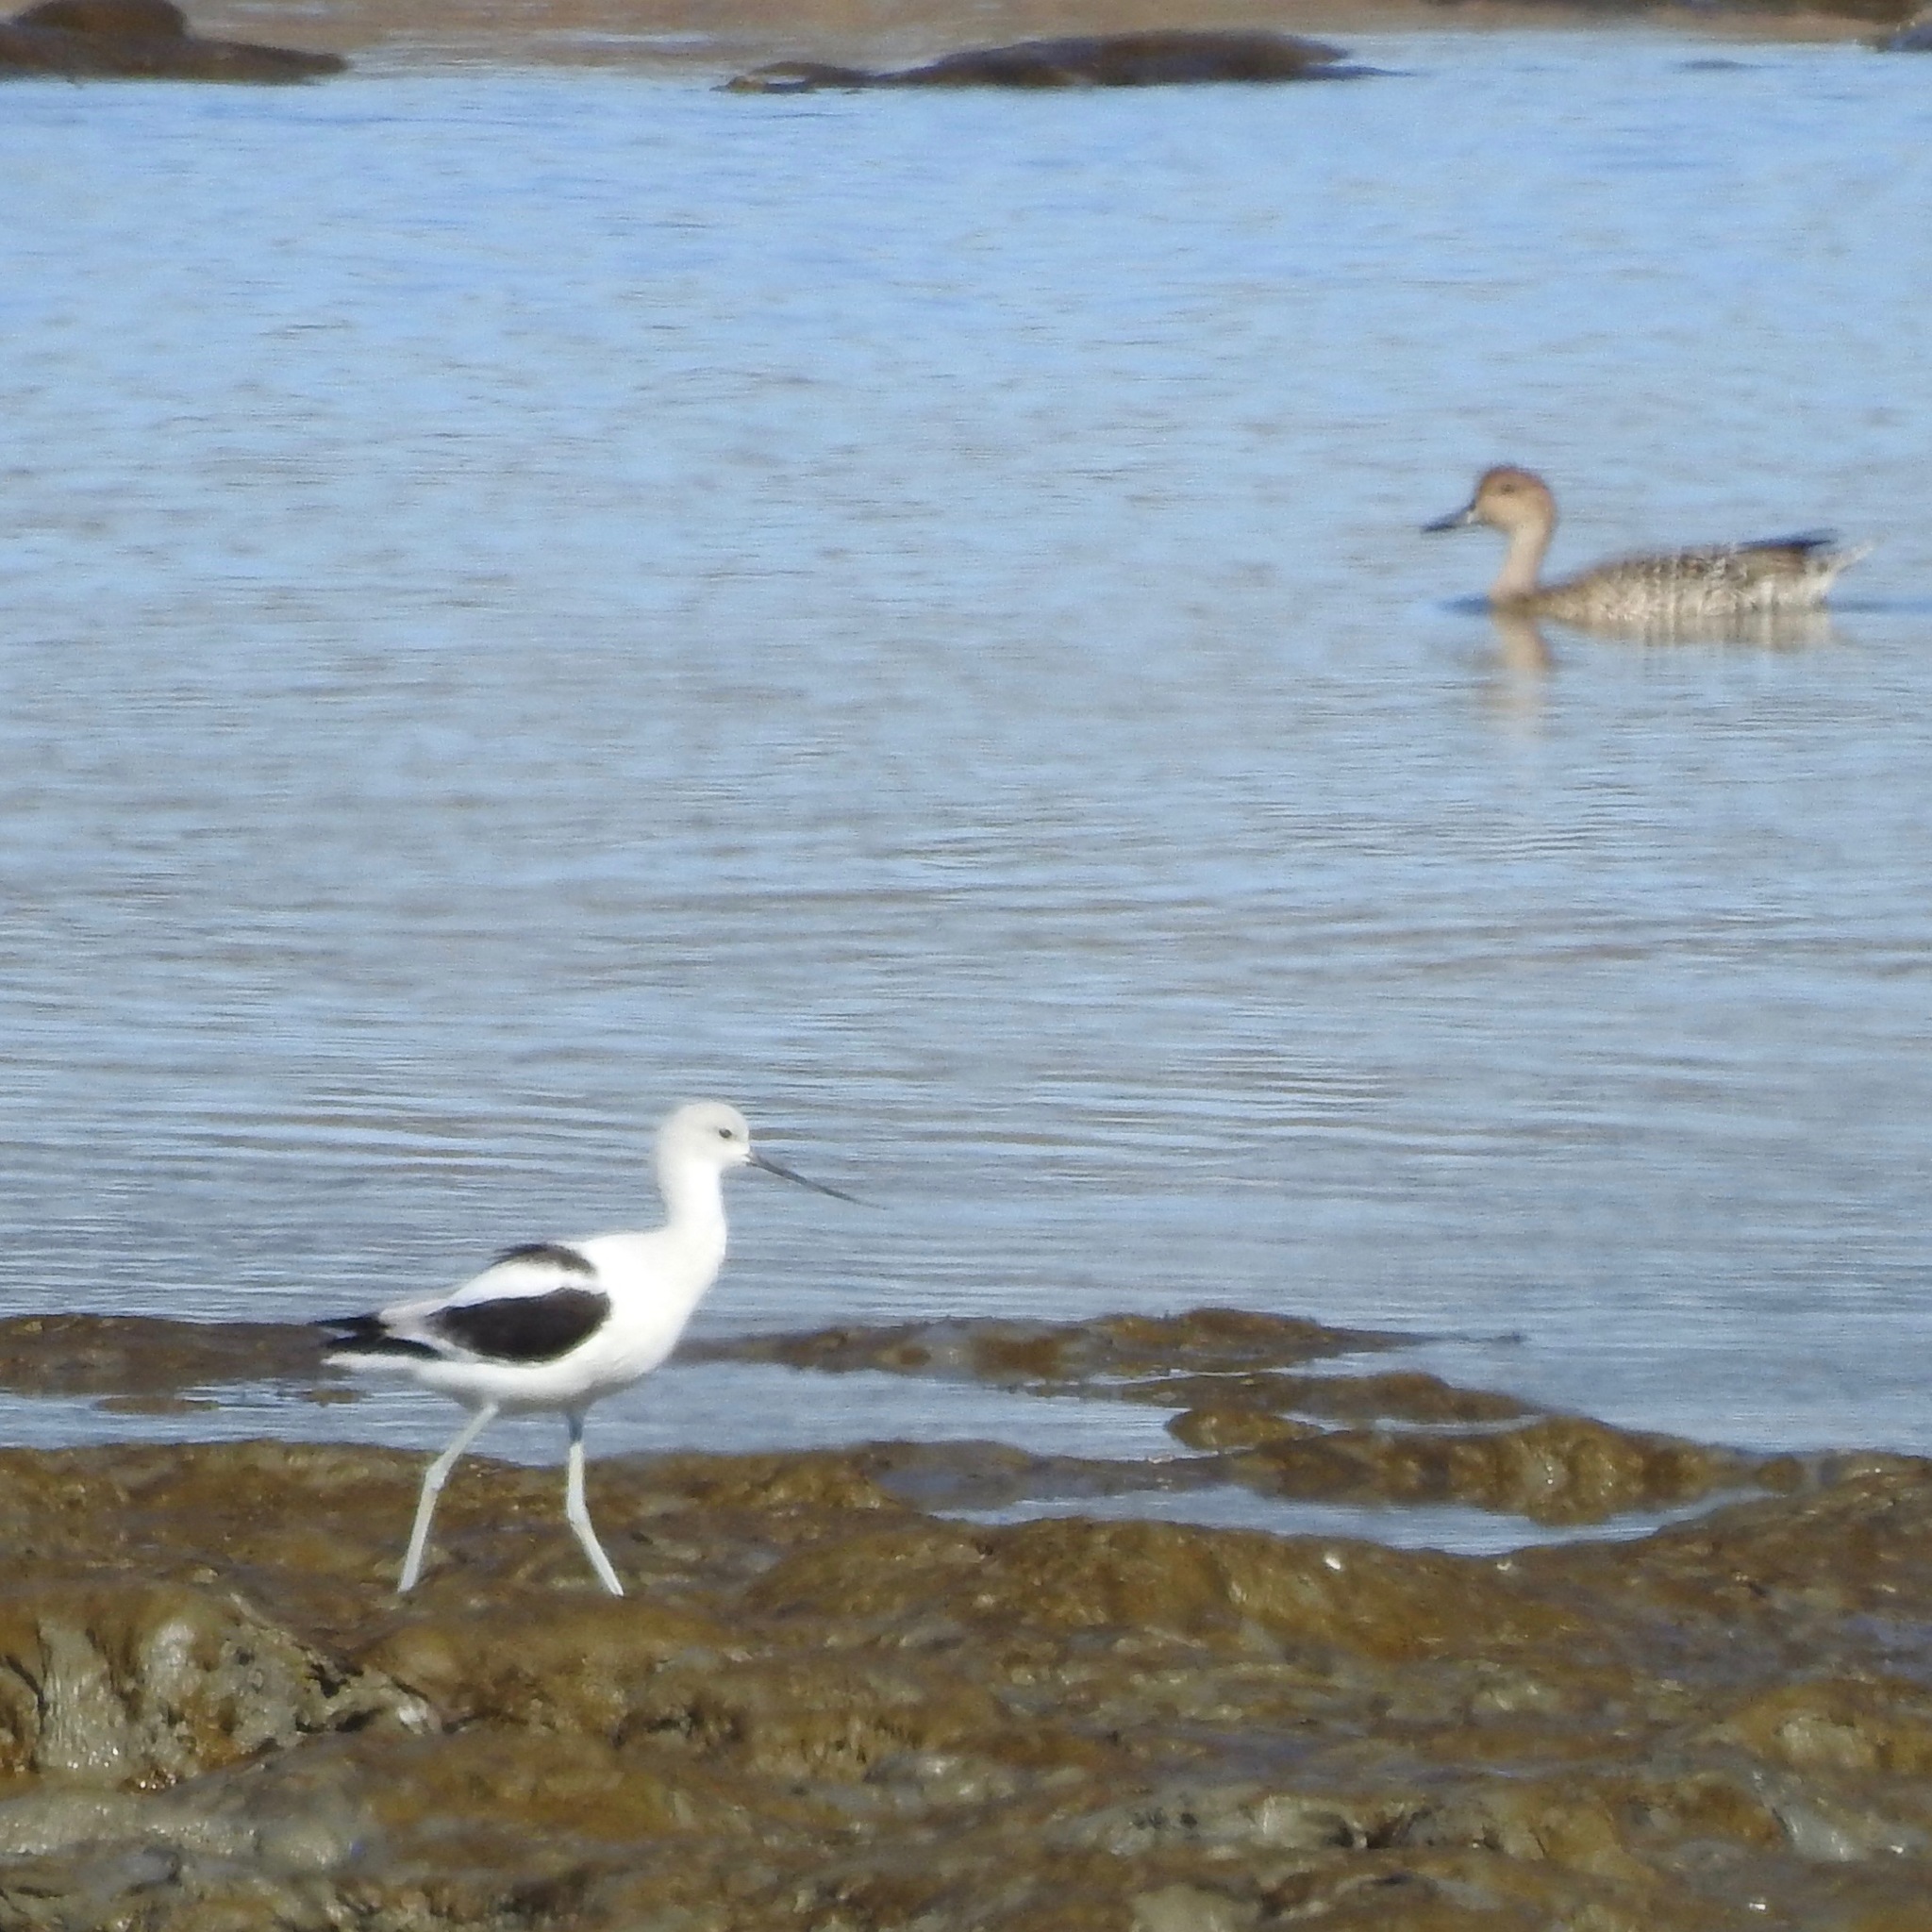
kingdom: Animalia
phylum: Chordata
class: Aves
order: Charadriiformes
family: Recurvirostridae
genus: Recurvirostra
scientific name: Recurvirostra americana
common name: American avocet
